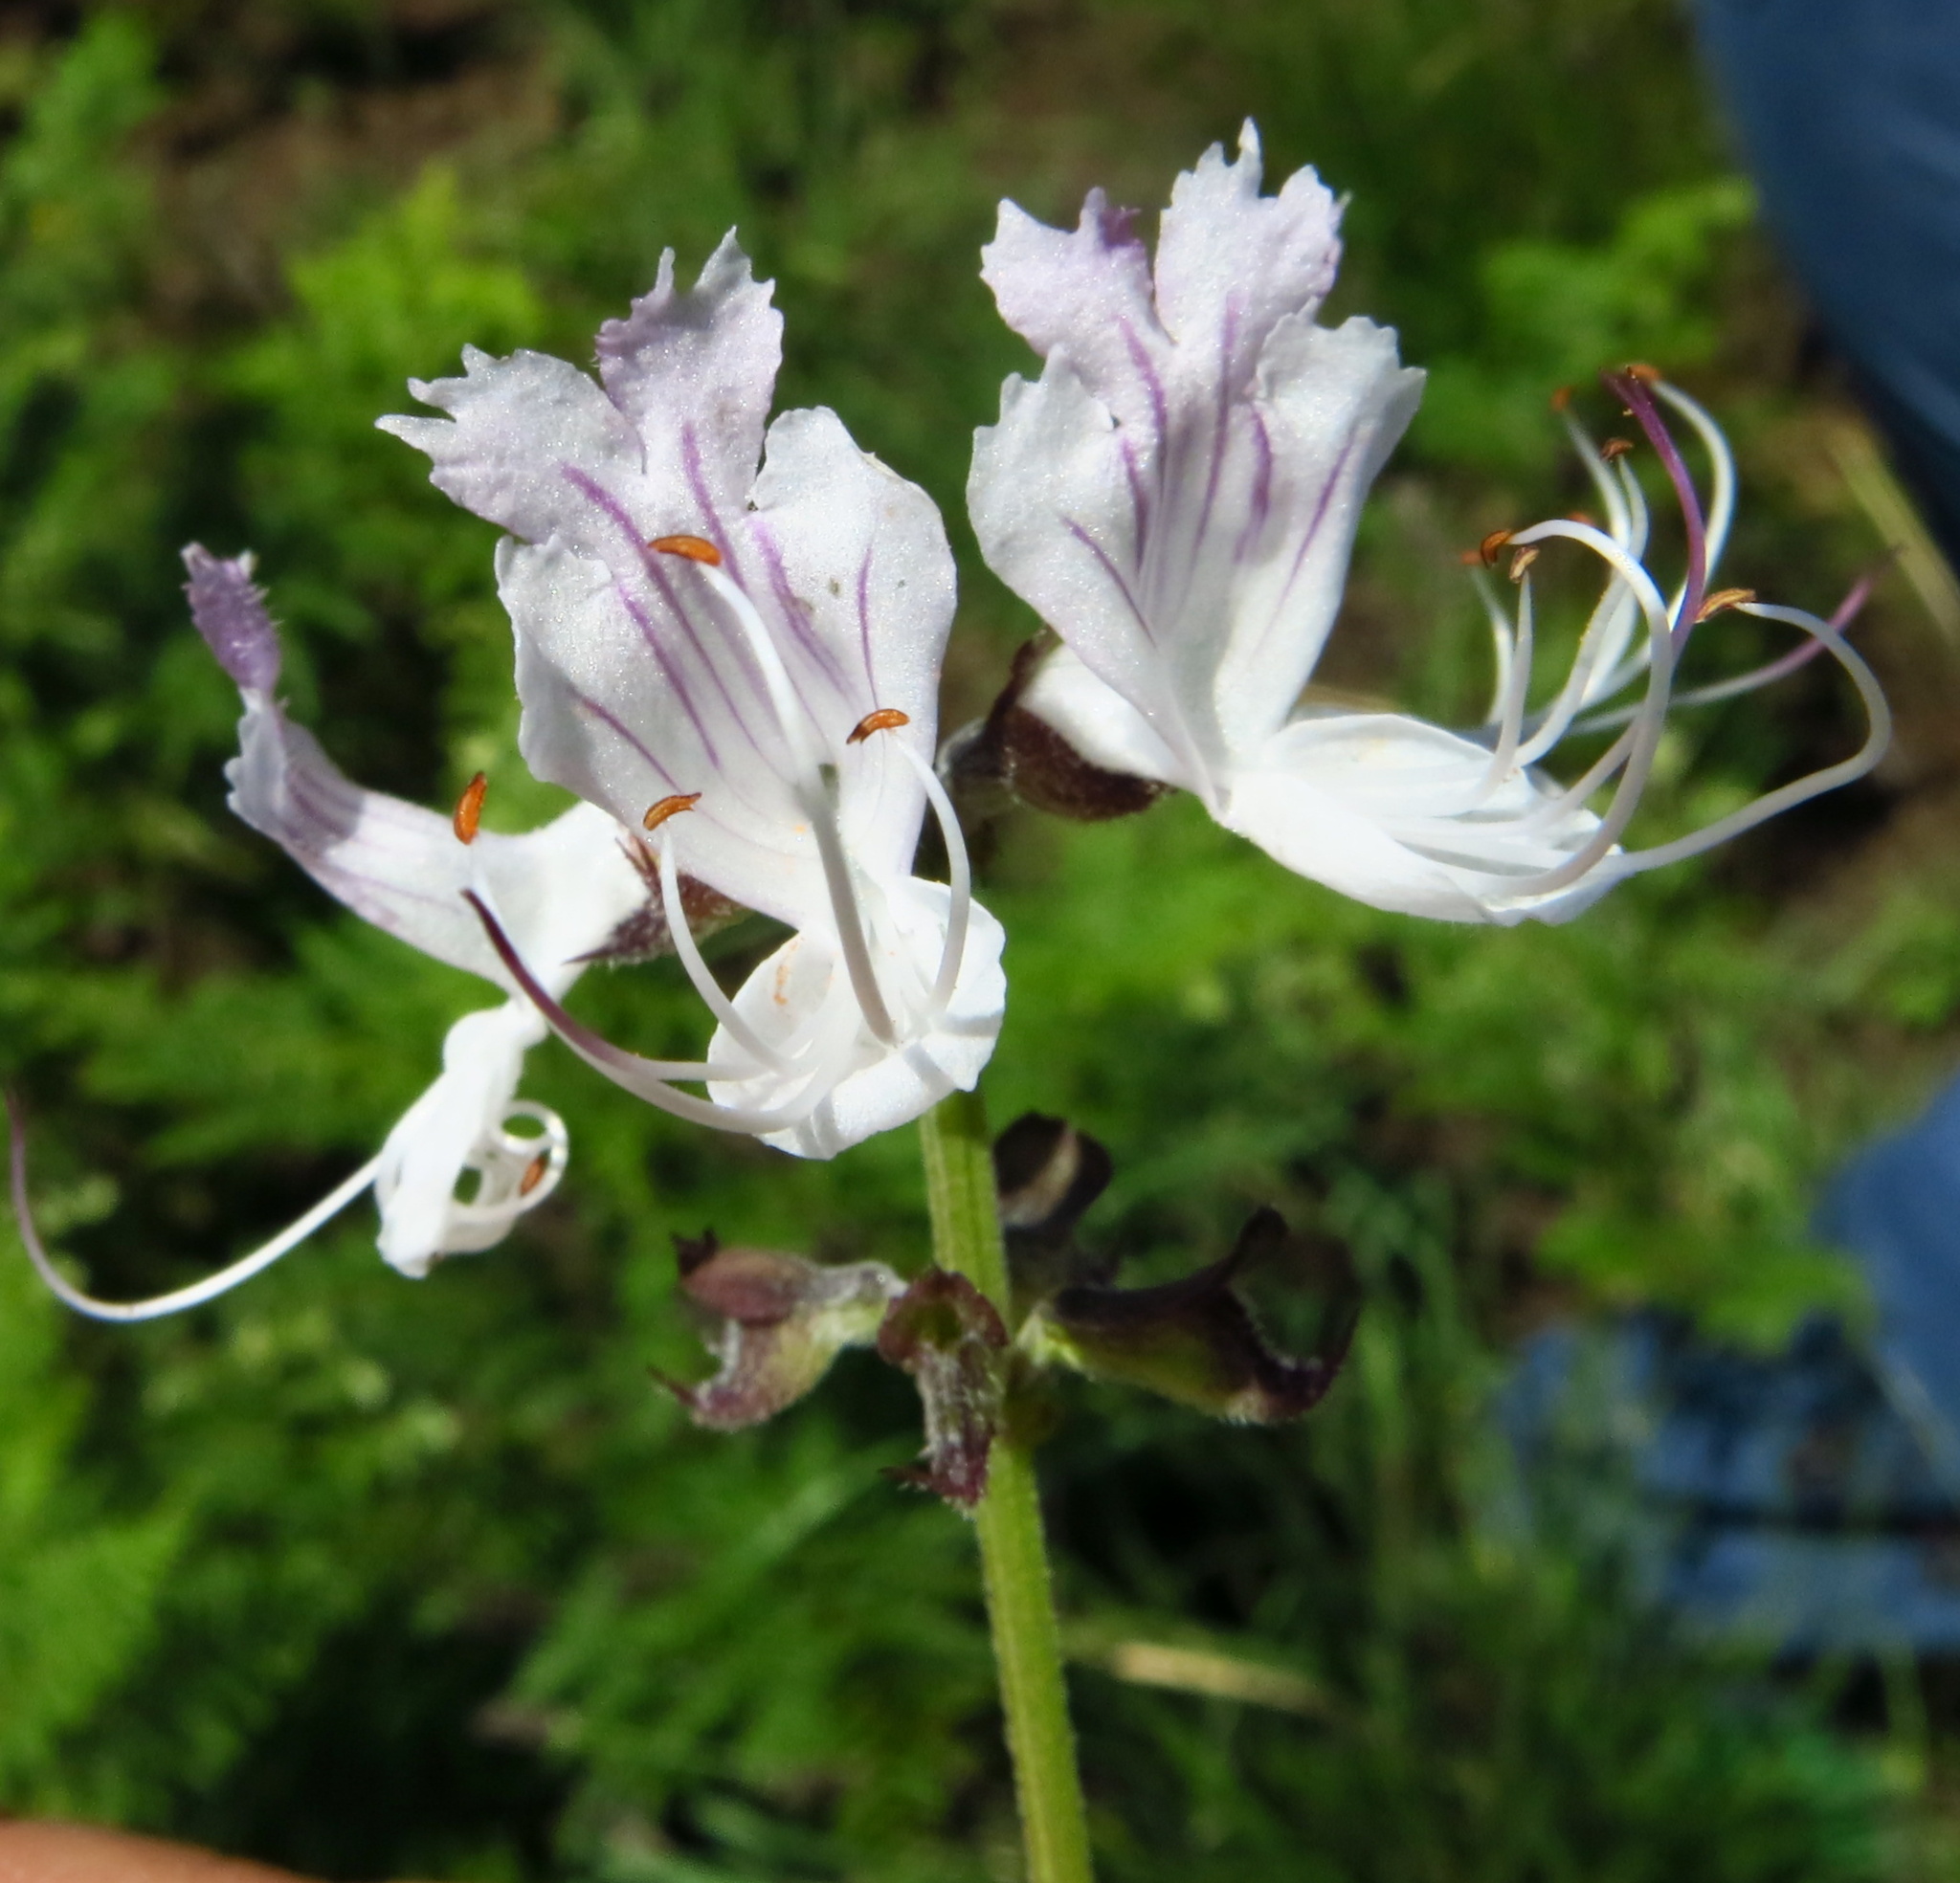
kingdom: Plantae
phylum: Tracheophyta
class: Magnoliopsida
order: Lamiales
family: Lamiaceae
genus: Ocimum
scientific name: Ocimum obovatum
